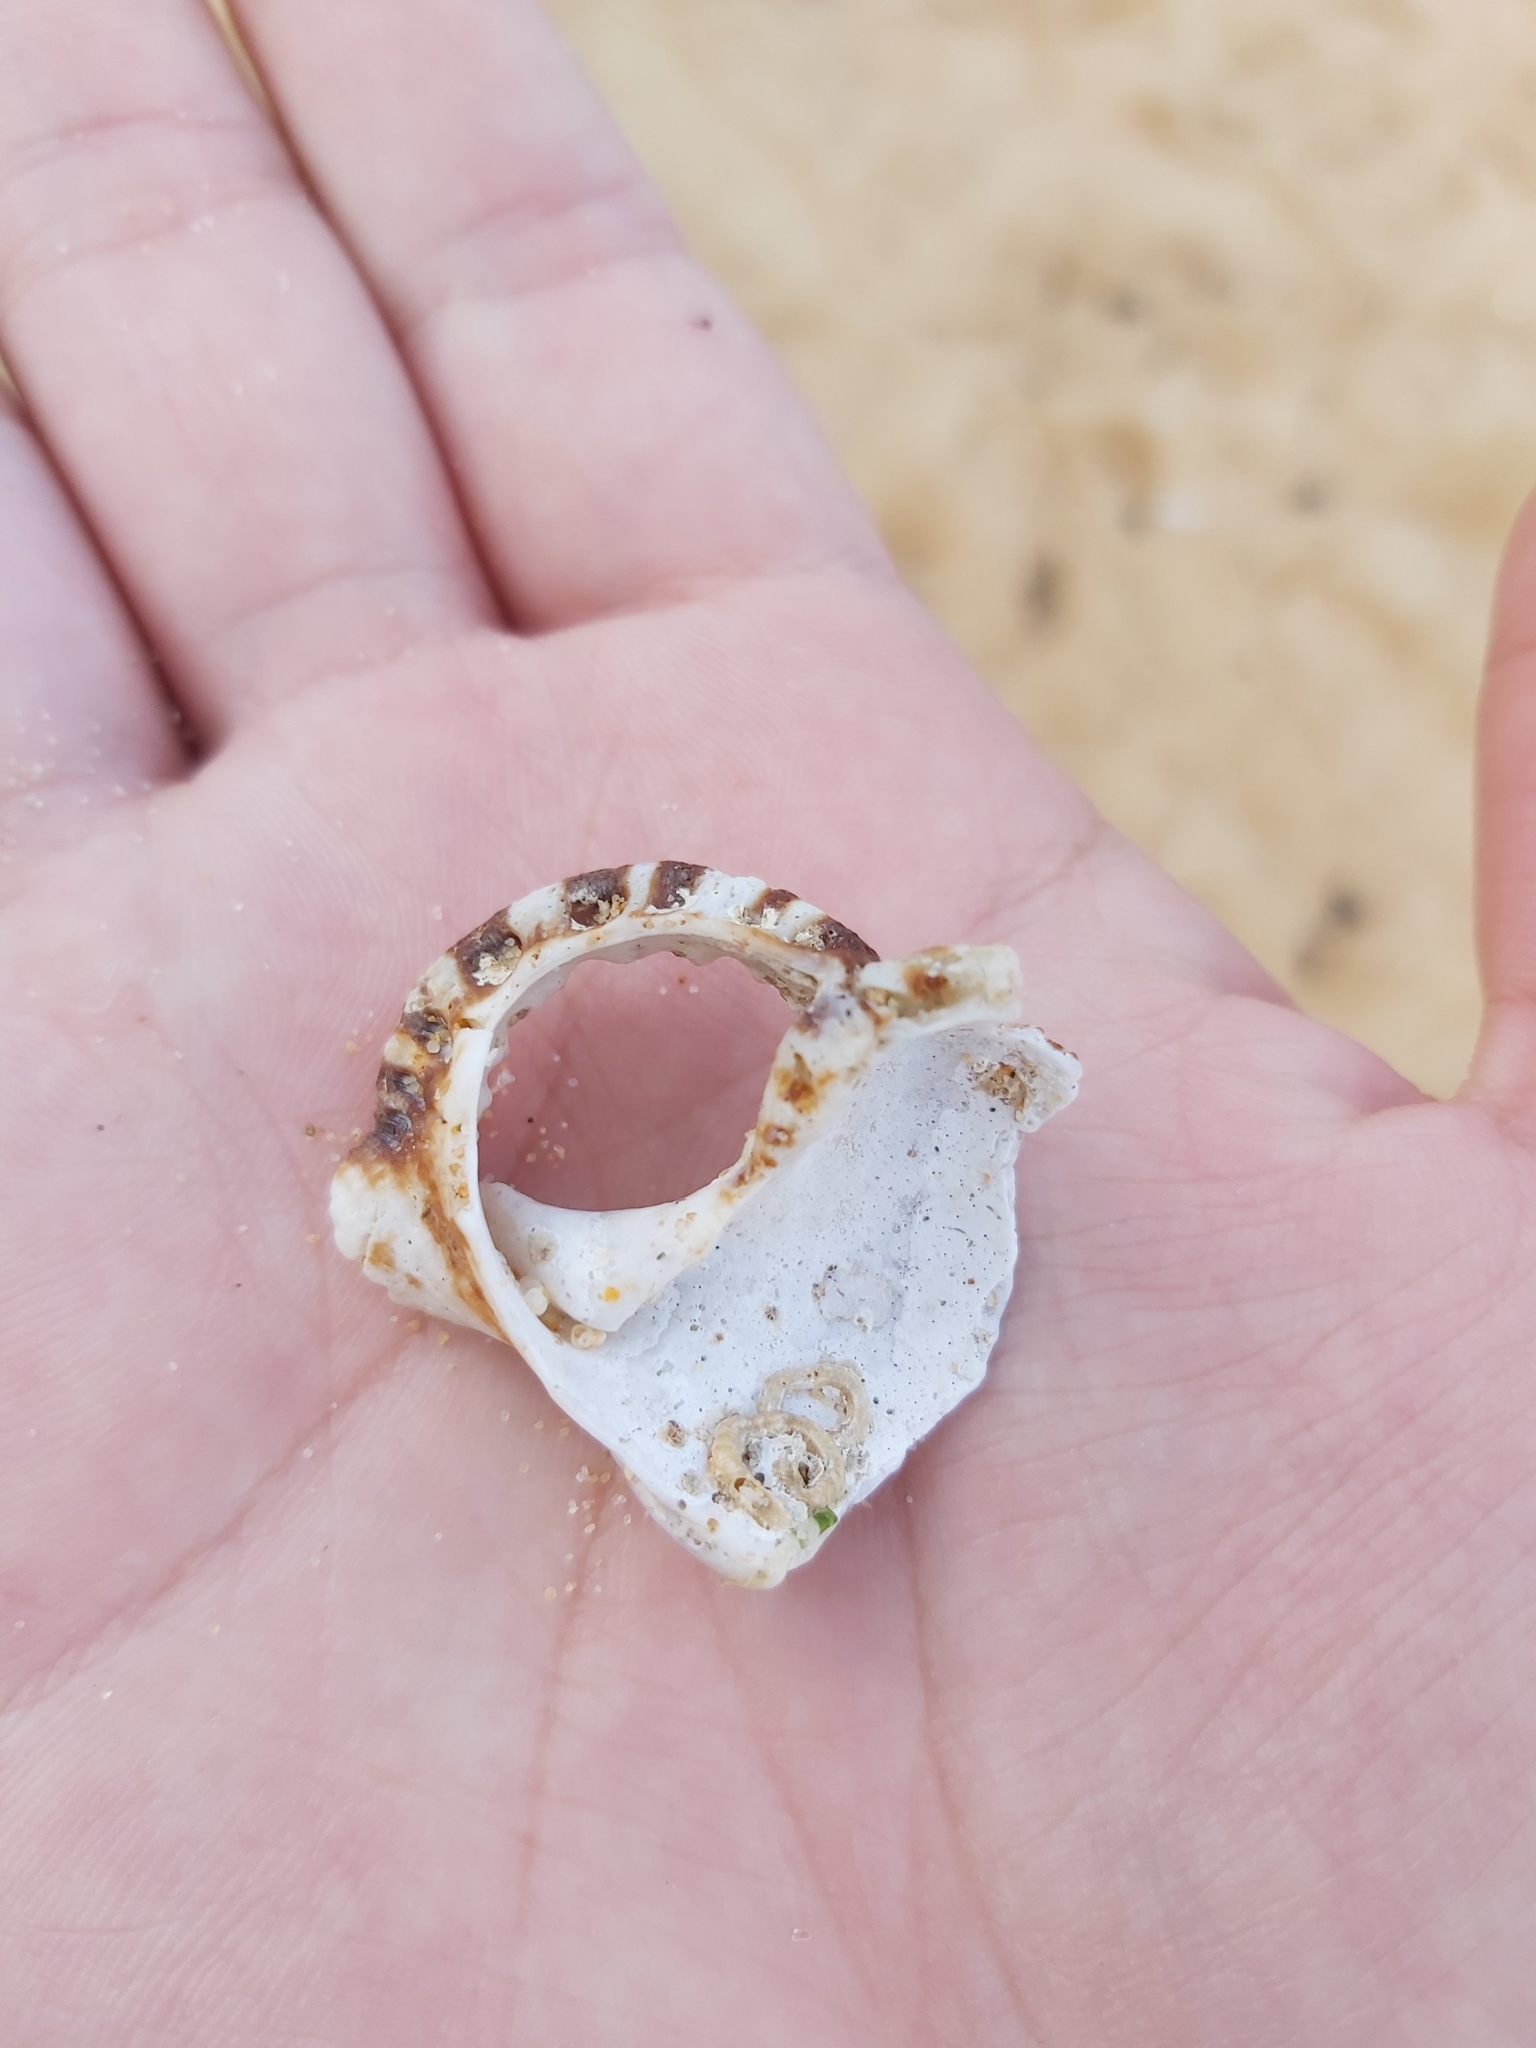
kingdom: Animalia
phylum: Mollusca
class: Gastropoda
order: Littorinimorpha
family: Ranellidae
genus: Ranella
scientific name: Ranella australasia
